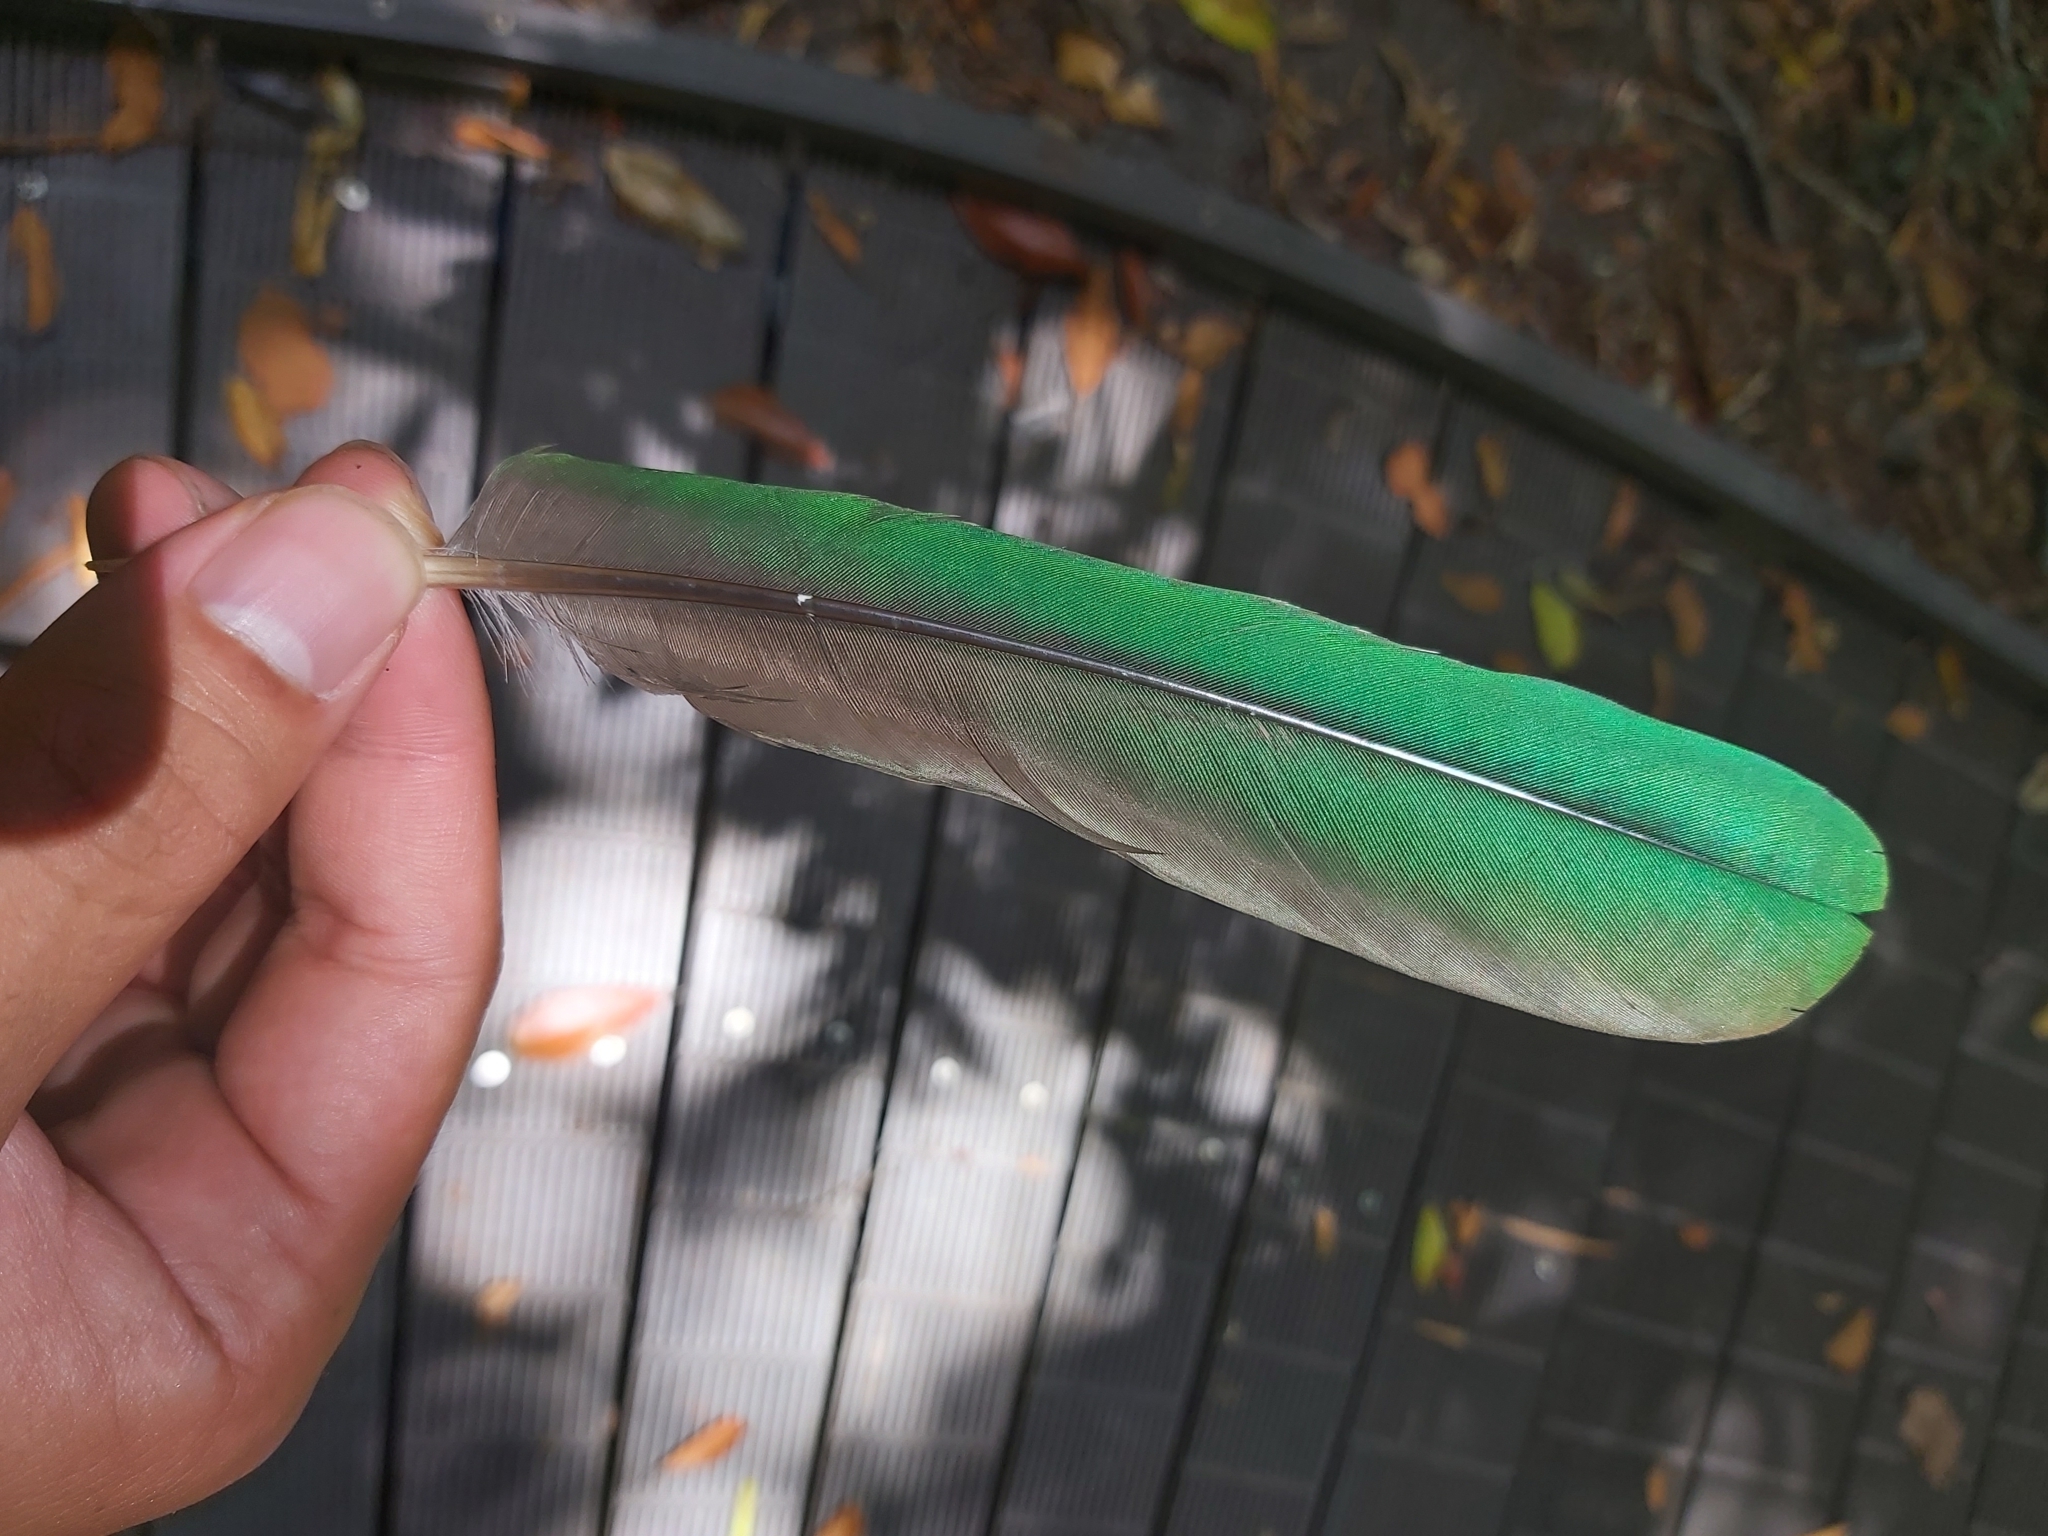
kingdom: Animalia
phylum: Chordata
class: Aves
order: Columbiformes
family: Columbidae
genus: Ptilinopus
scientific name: Ptilinopus magnificus
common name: Wompoo fruit dove
